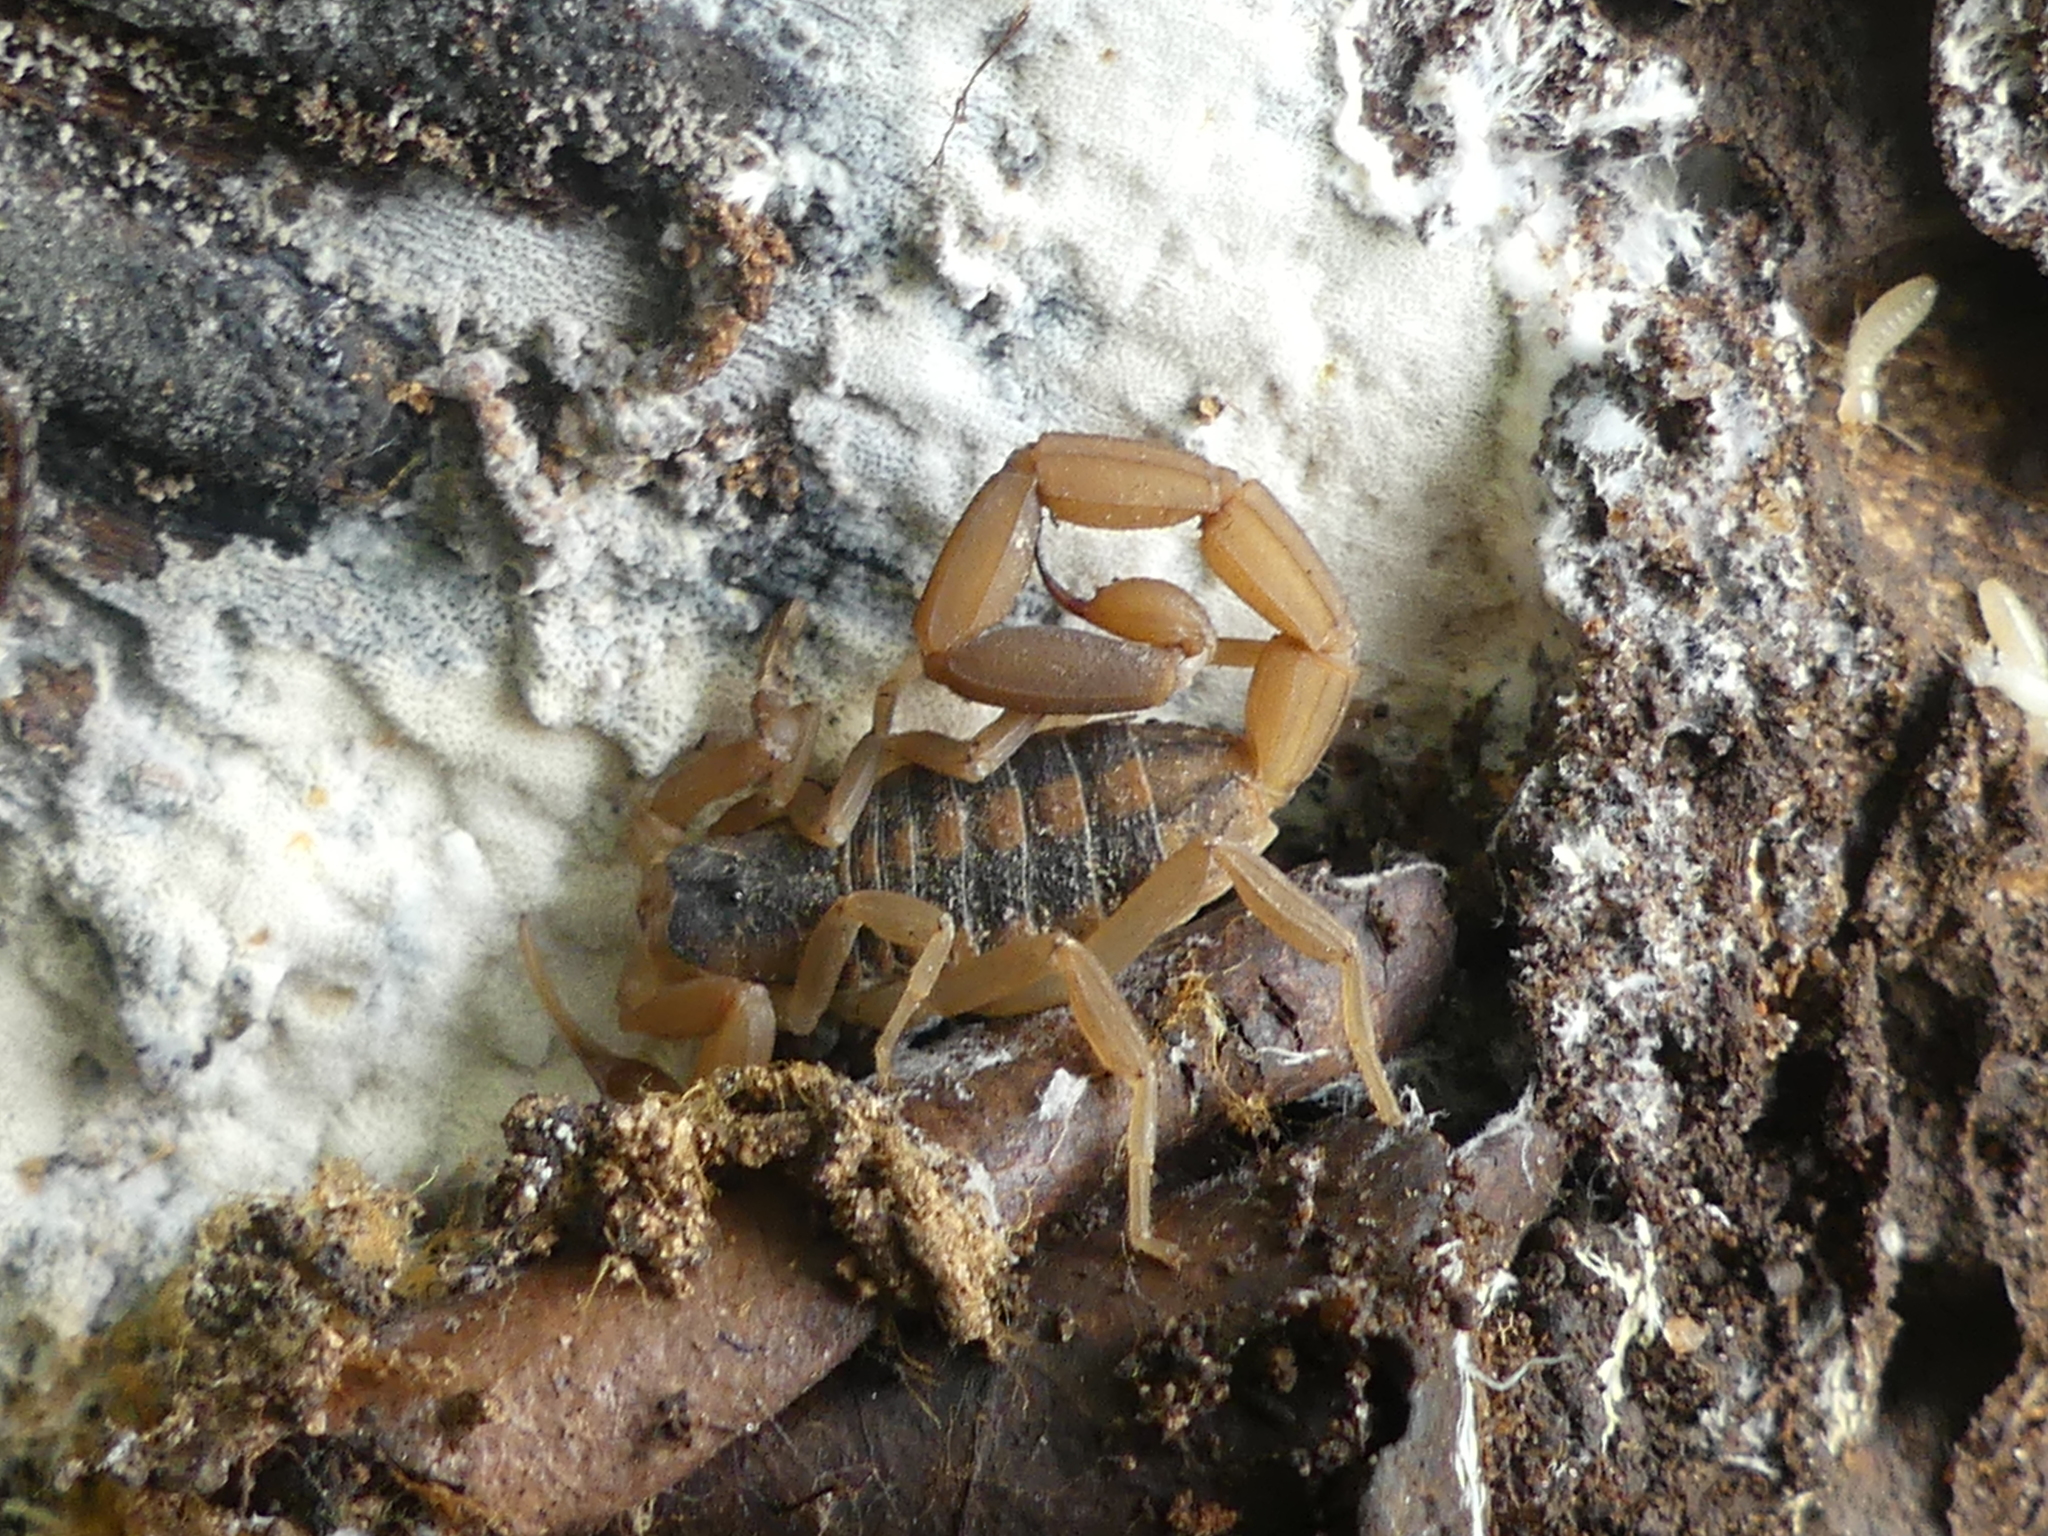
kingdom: Animalia
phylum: Arthropoda
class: Arachnida
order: Scorpiones
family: Buthidae
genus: Centruroides
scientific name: Centruroides vittatus
